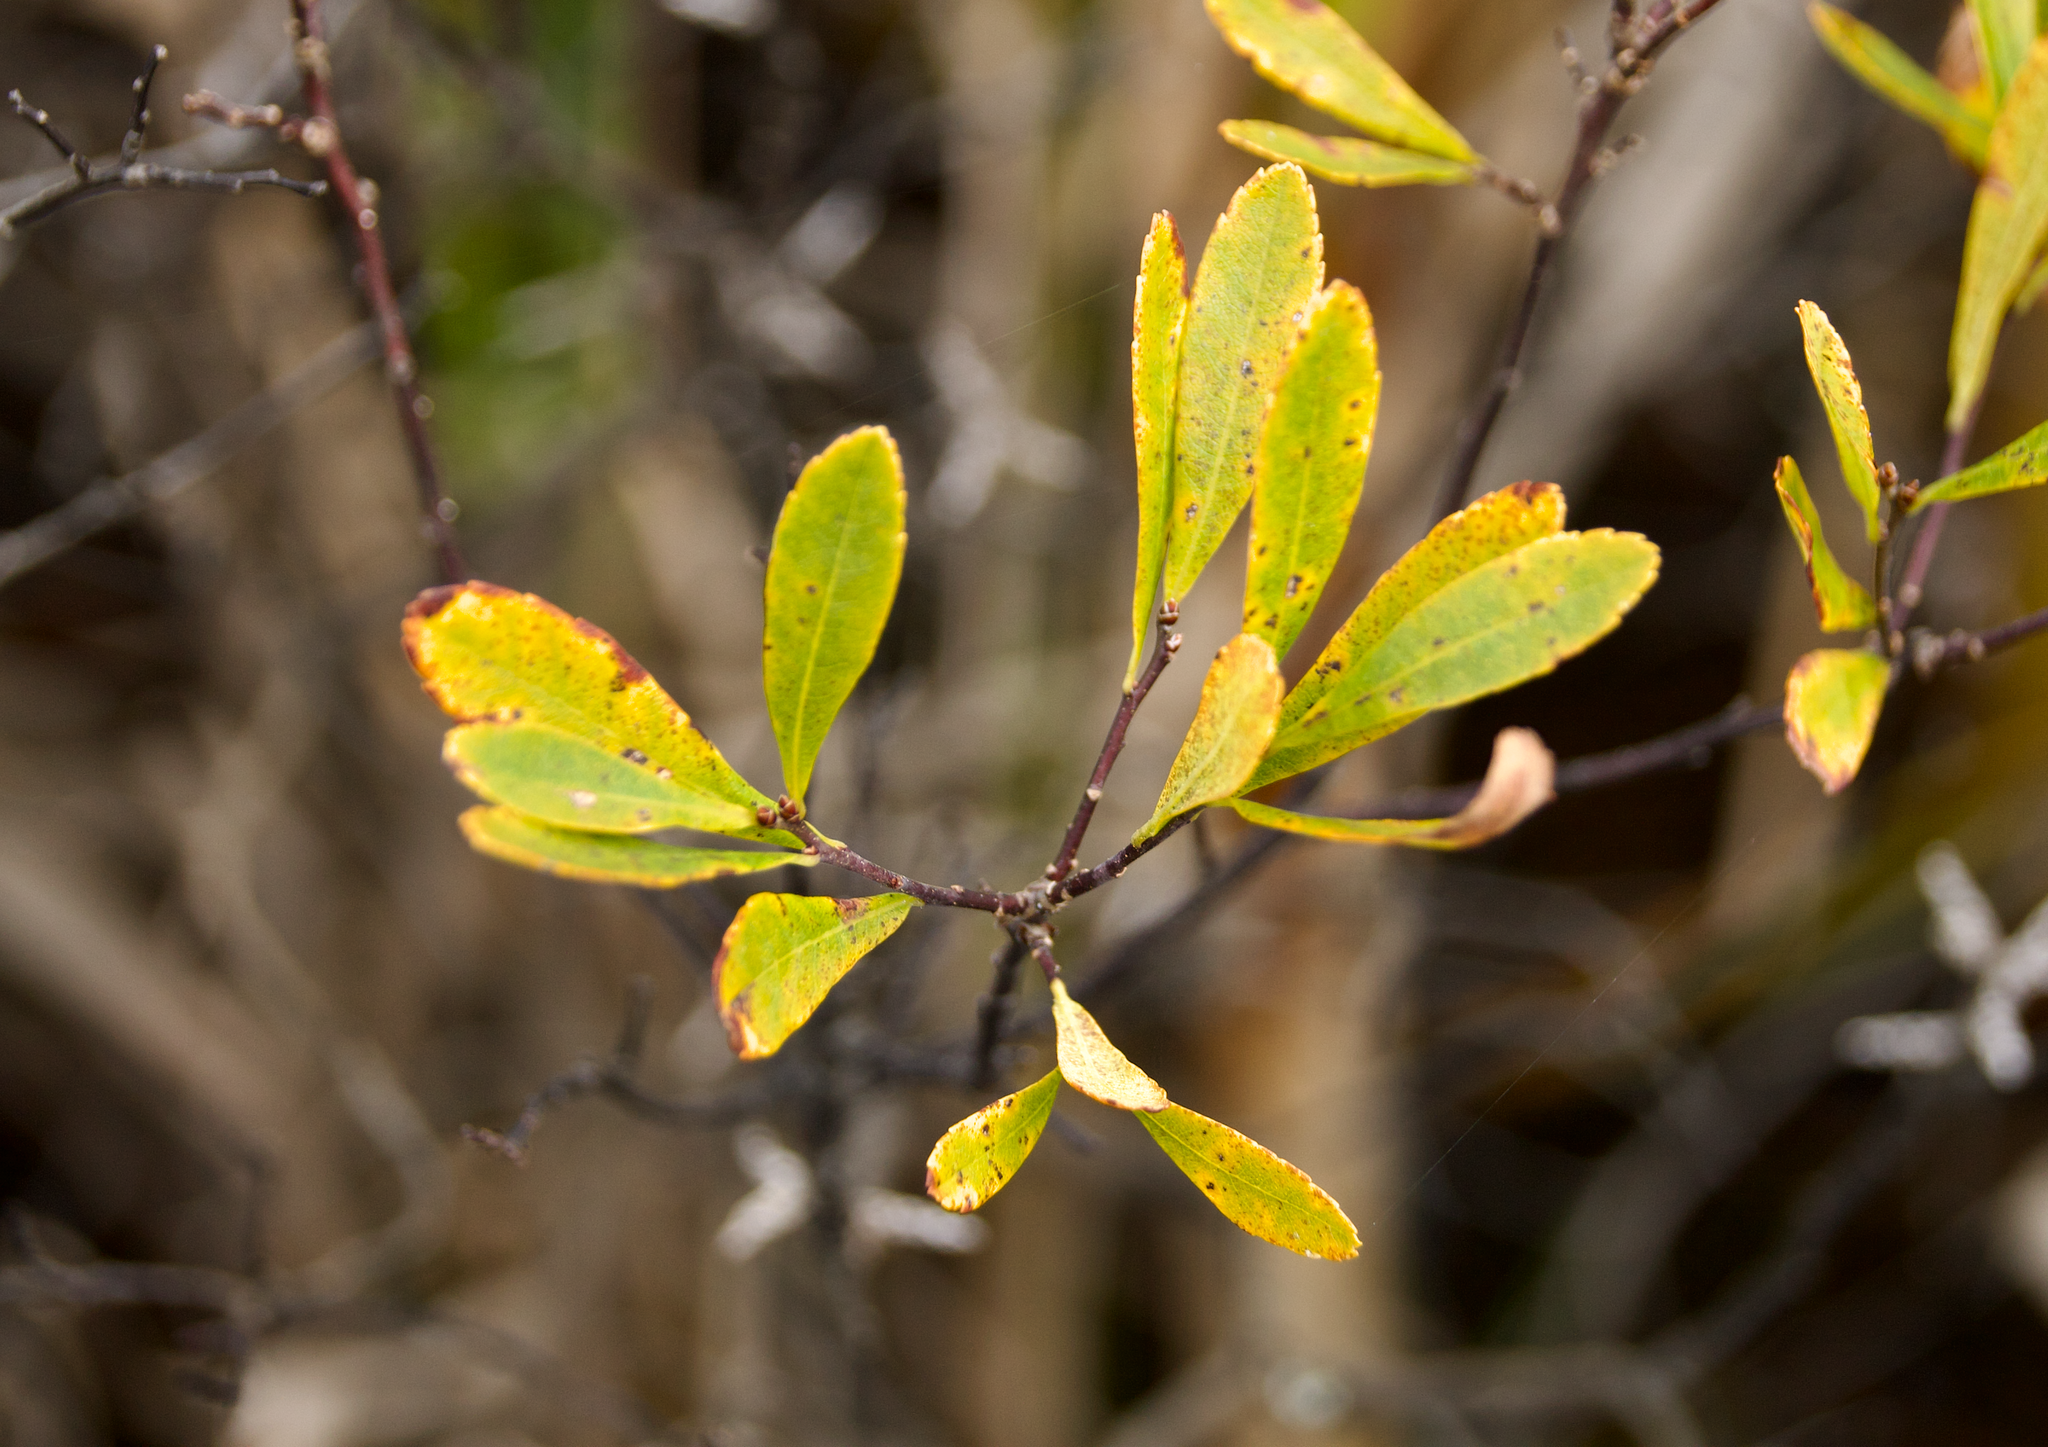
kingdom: Plantae
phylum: Tracheophyta
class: Magnoliopsida
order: Fagales
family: Myricaceae
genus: Myrica
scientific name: Myrica gale
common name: Sweet gale
